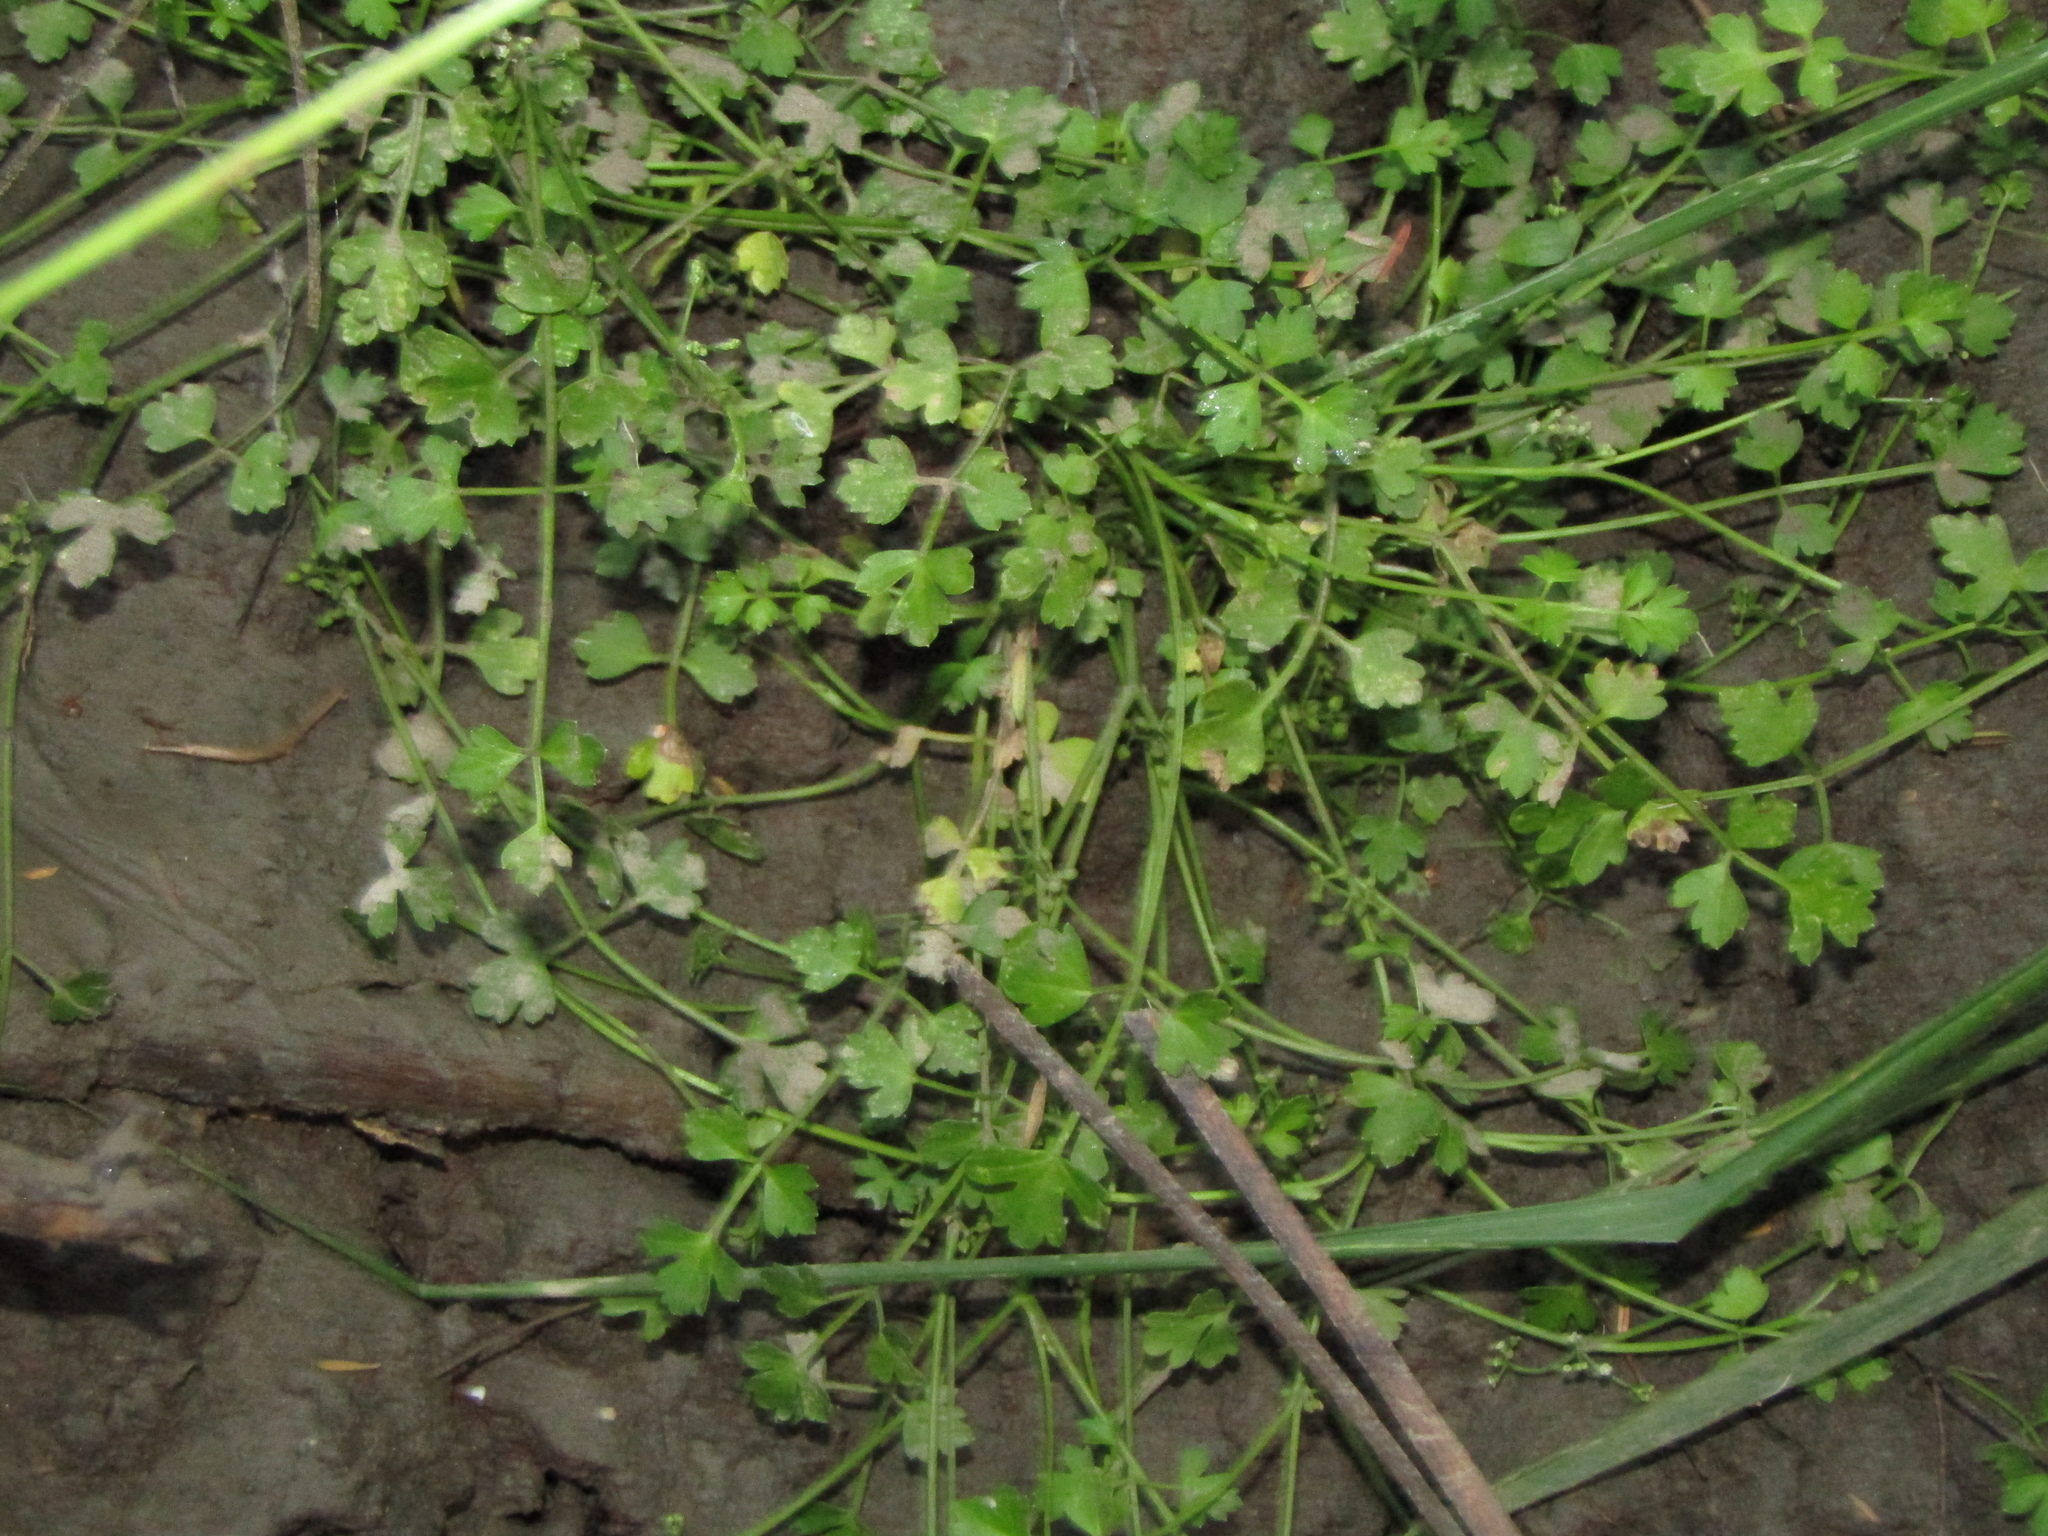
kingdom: Plantae
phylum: Tracheophyta
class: Magnoliopsida
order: Apiales
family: Apiaceae
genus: Apium
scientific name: Apium prostratum
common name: Prostrate marshwort
